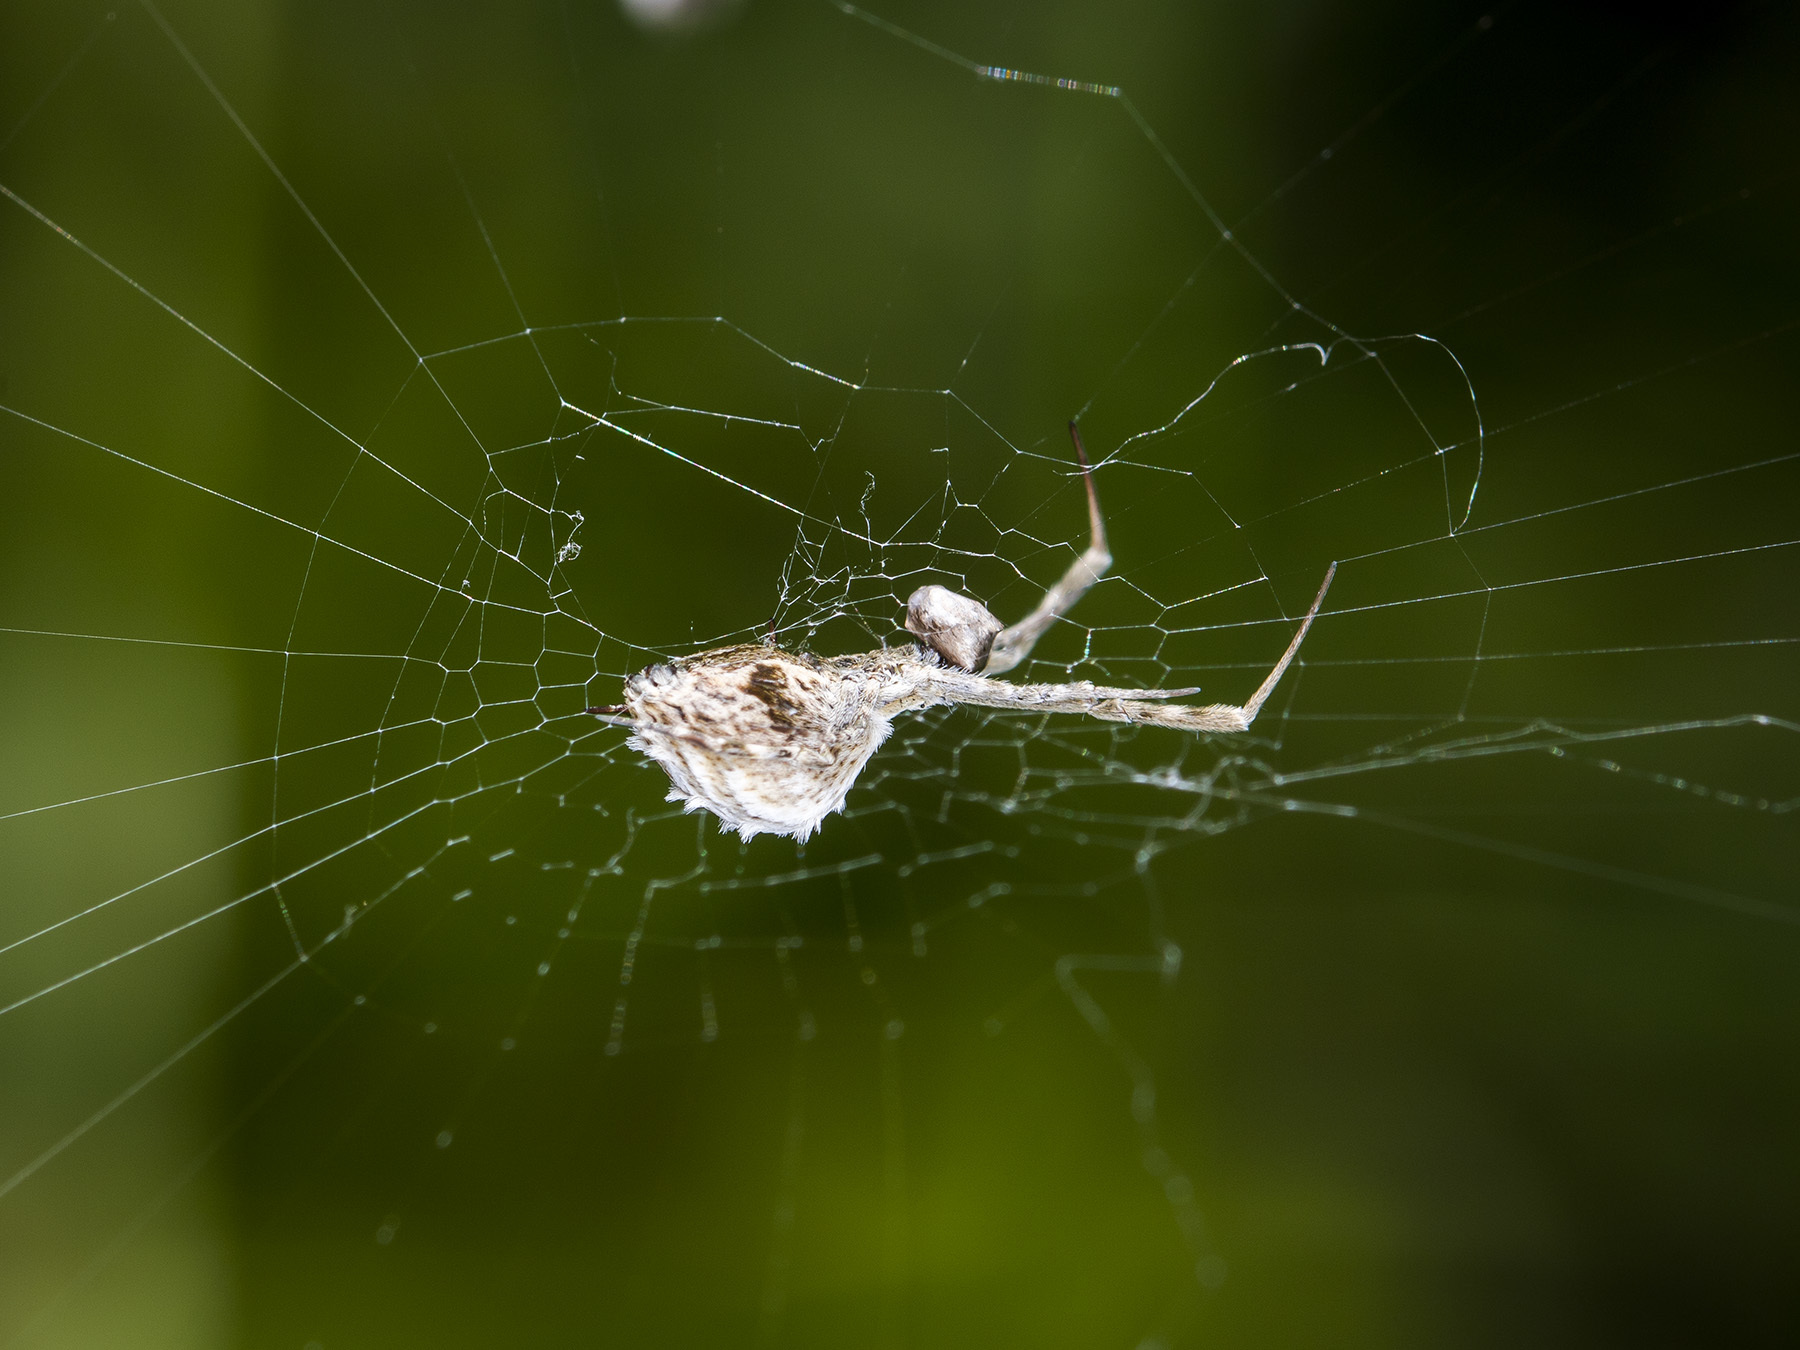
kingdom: Animalia
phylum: Arthropoda
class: Arachnida
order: Araneae
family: Uloboridae
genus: Uloborus
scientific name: Uloborus walckenaerius
